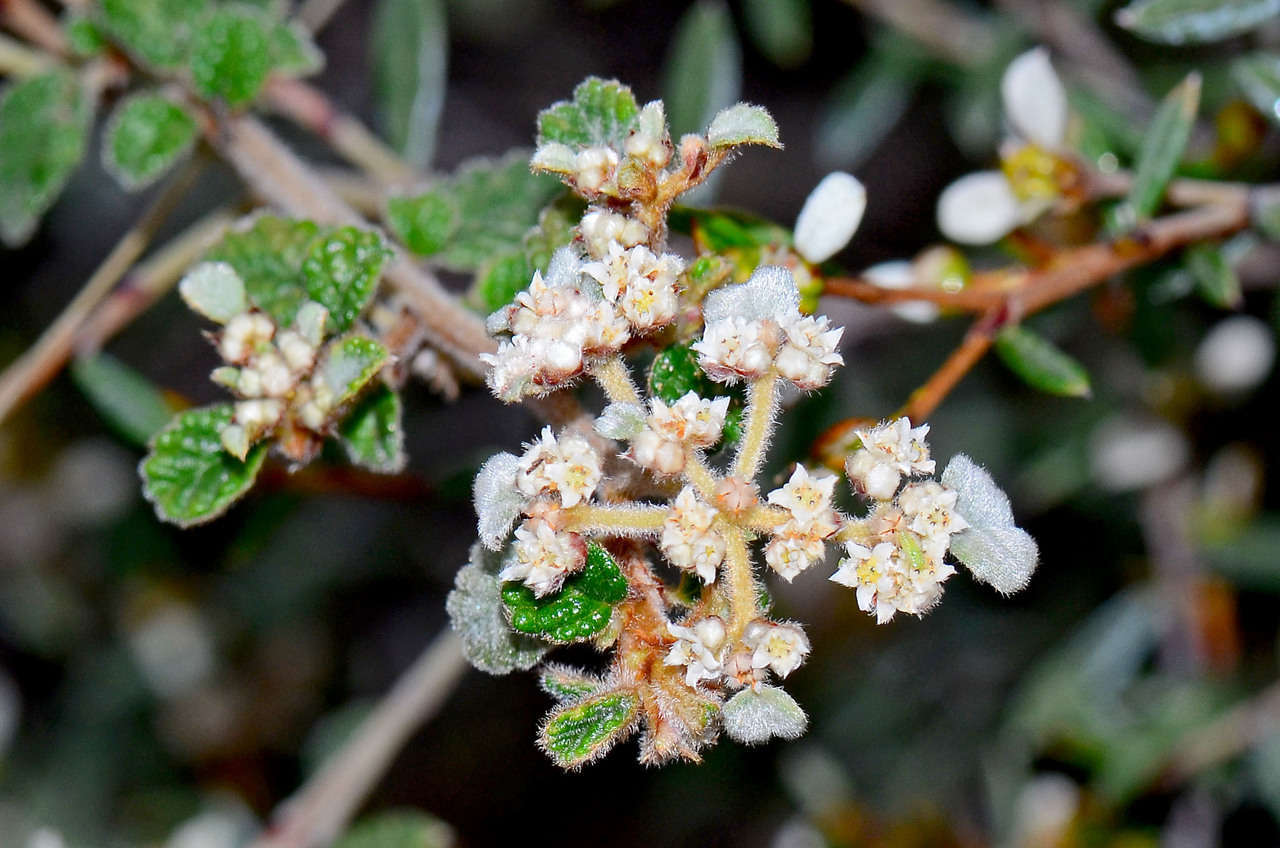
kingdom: Plantae
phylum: Tracheophyta
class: Magnoliopsida
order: Rosales
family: Rhamnaceae
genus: Spyridium
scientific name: Spyridium parvifolium
